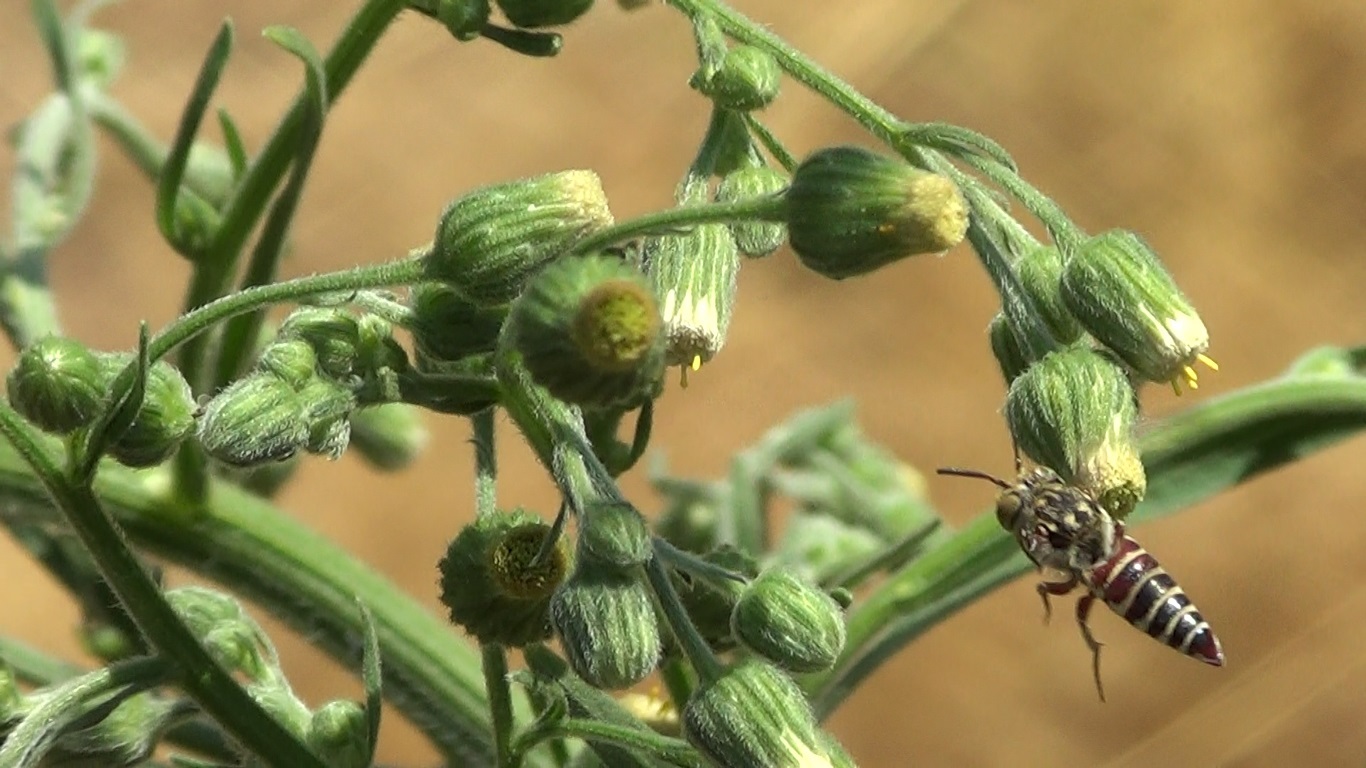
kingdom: Animalia
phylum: Arthropoda
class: Insecta
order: Hymenoptera
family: Megachilidae
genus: Coelioxys
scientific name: Coelioxys haemorrhoa
